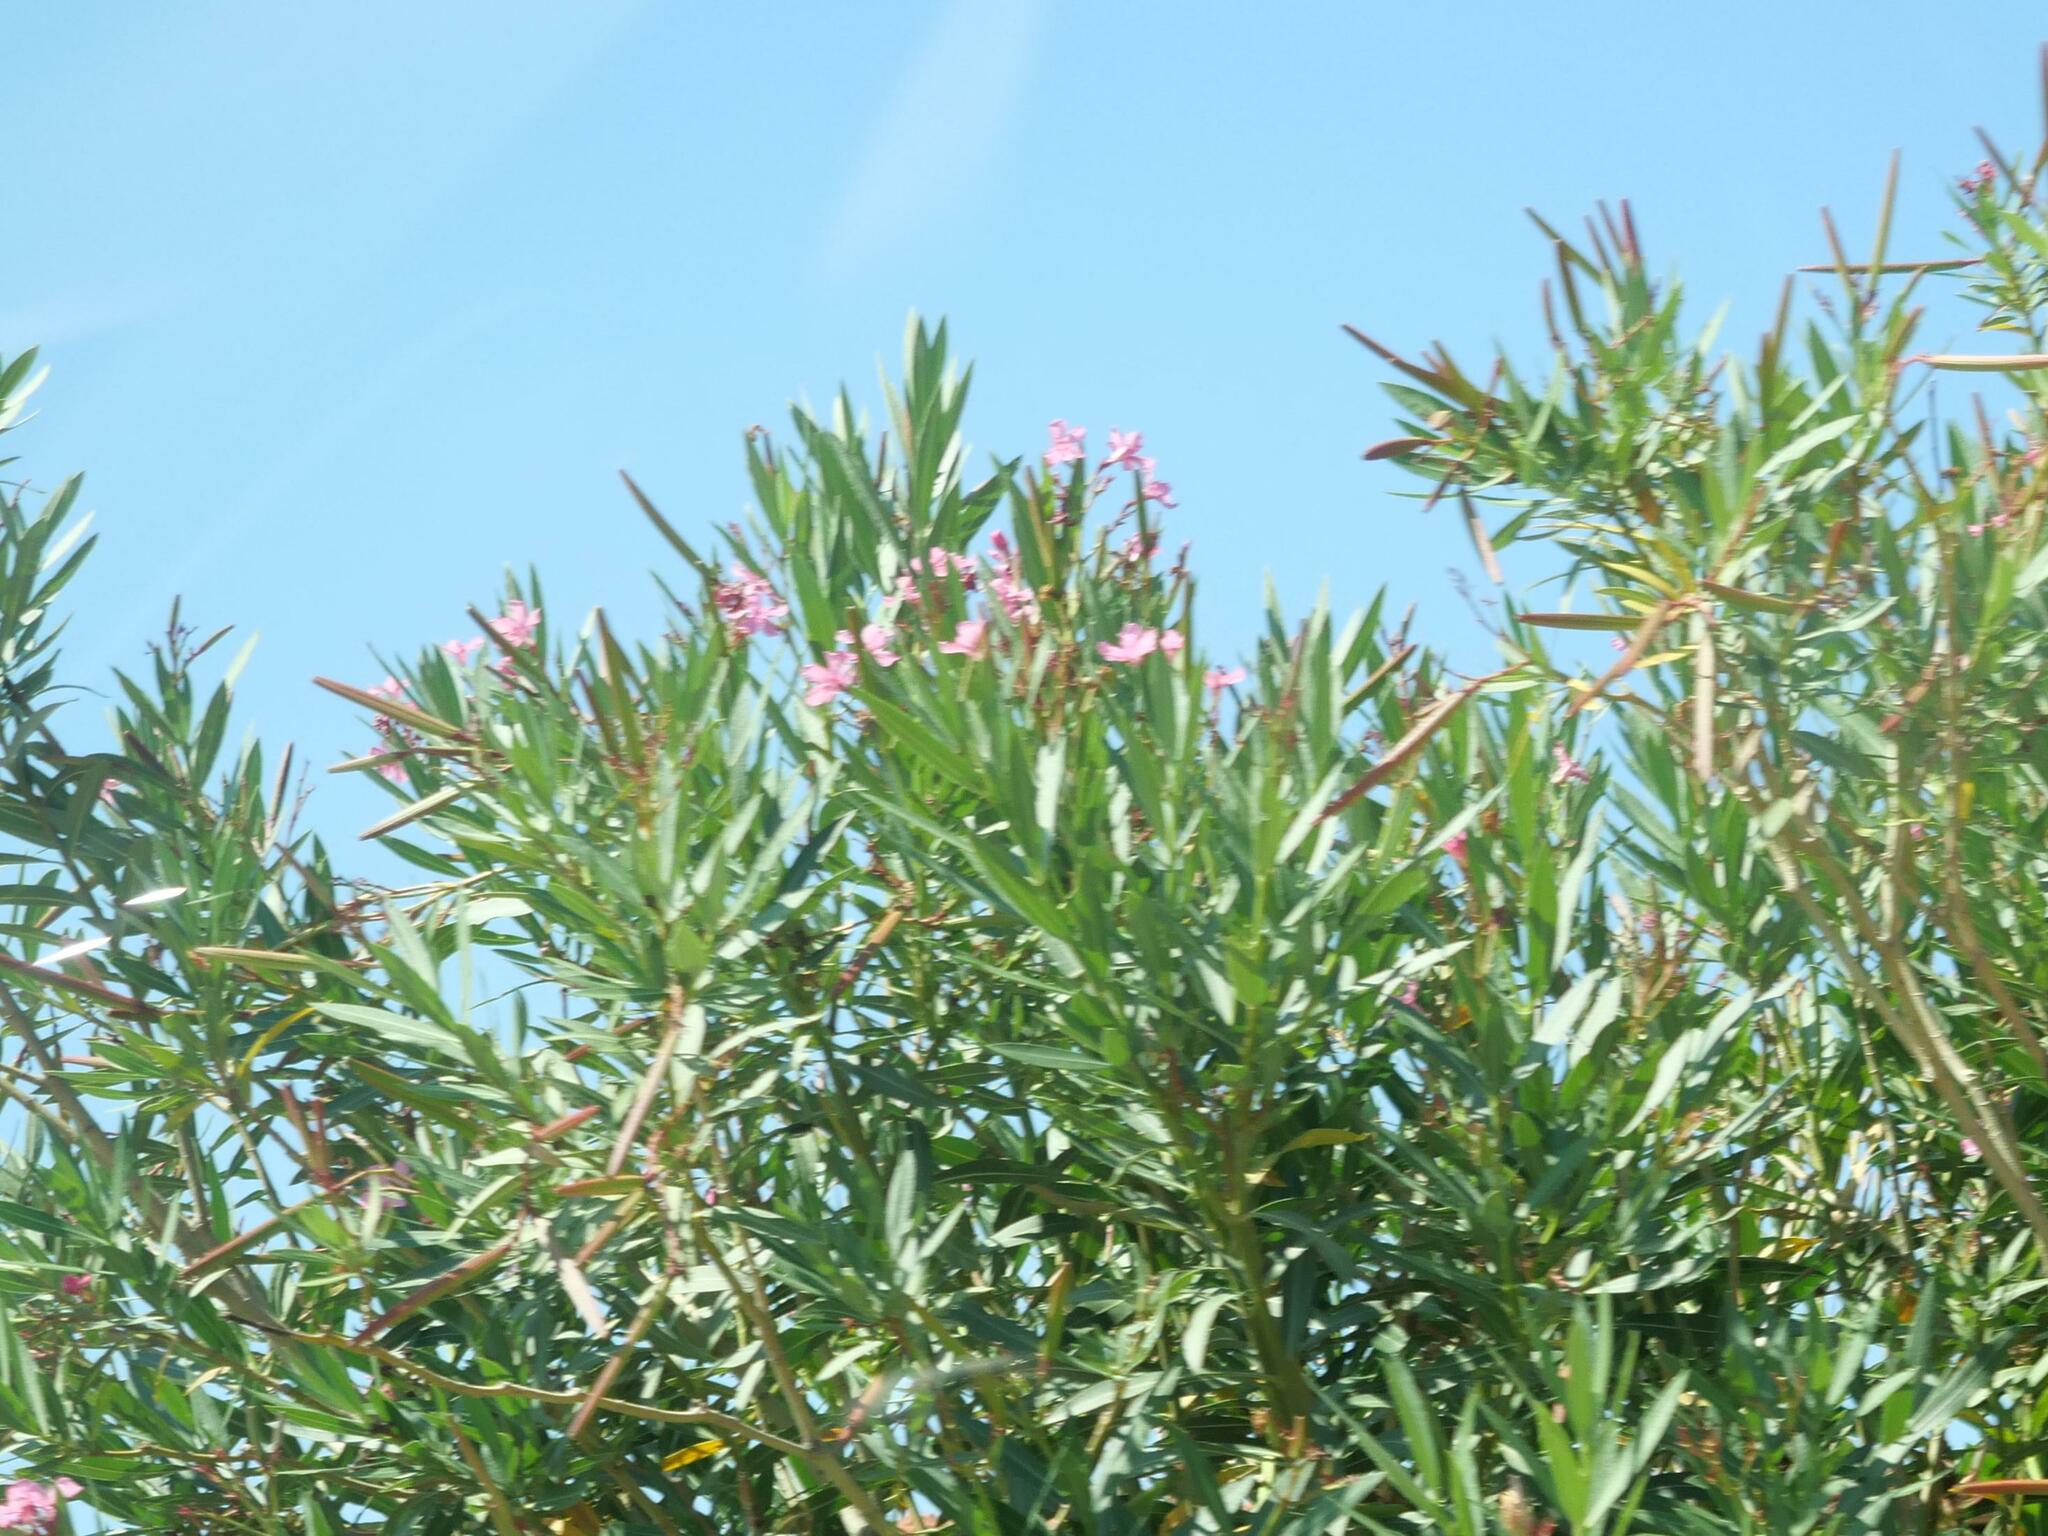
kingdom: Plantae
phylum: Tracheophyta
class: Magnoliopsida
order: Gentianales
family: Apocynaceae
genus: Nerium
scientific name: Nerium oleander
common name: Oleander
